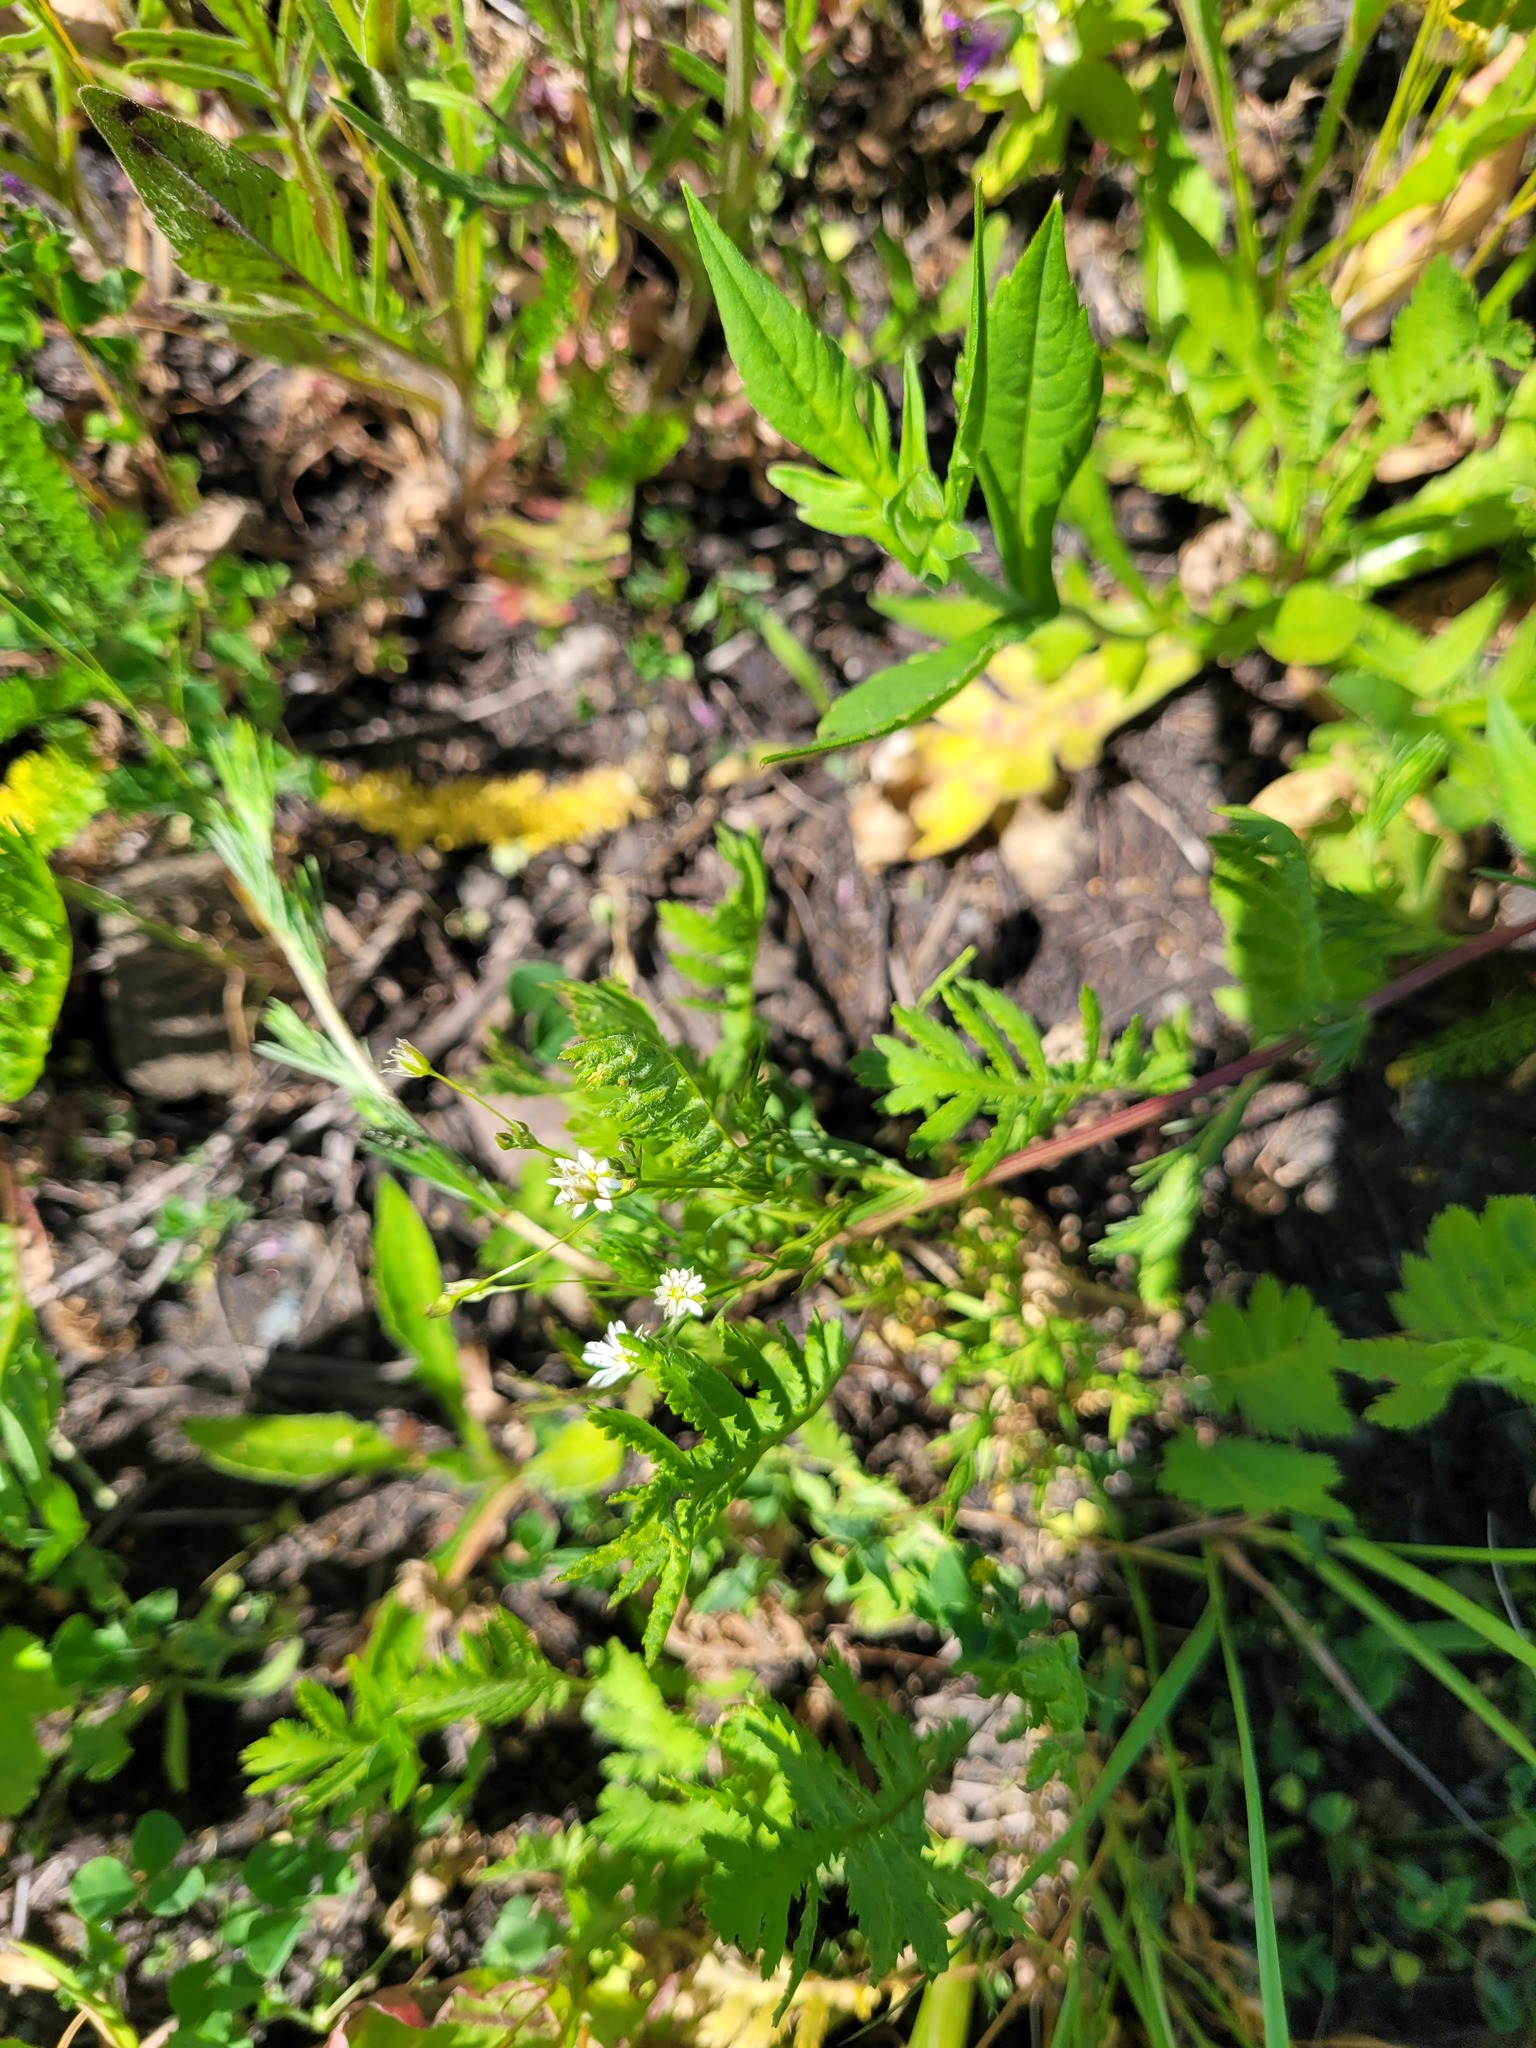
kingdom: Plantae
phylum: Tracheophyta
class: Magnoliopsida
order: Caryophyllales
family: Caryophyllaceae
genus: Stellaria
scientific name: Stellaria graminea
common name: Grass-like starwort
